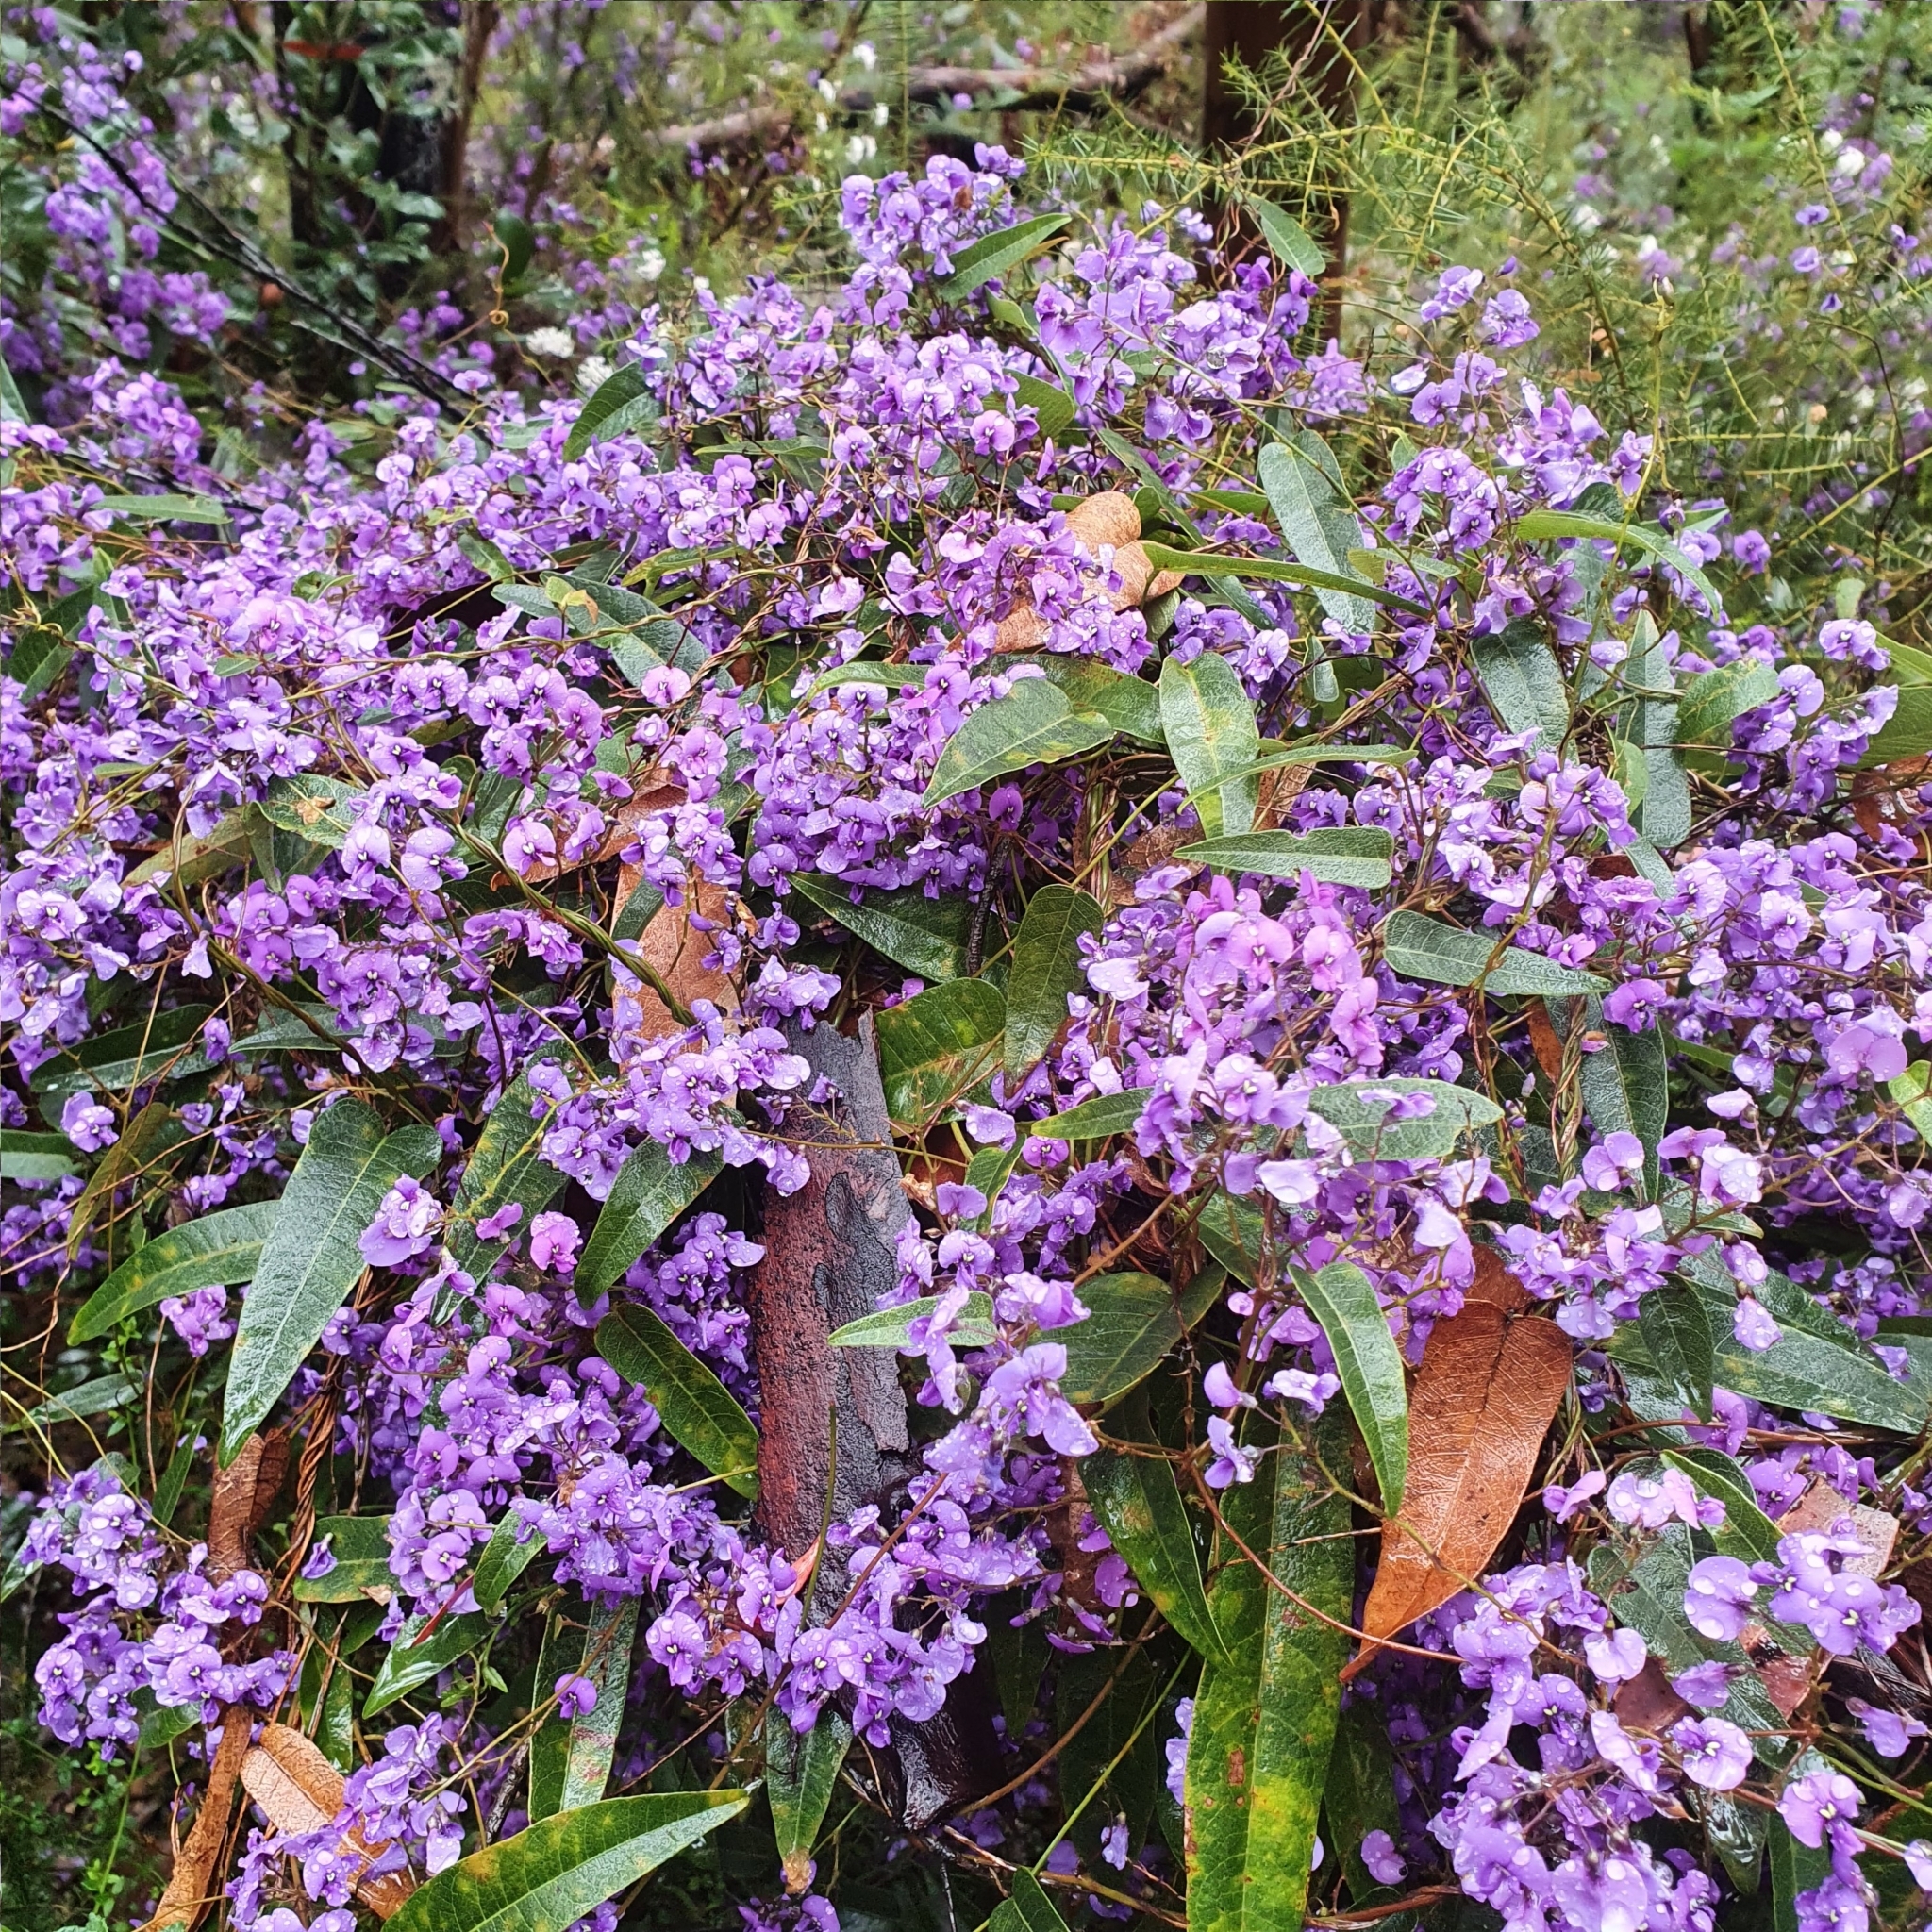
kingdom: Plantae
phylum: Tracheophyta
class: Magnoliopsida
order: Fabales
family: Fabaceae
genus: Hardenbergia
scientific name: Hardenbergia violacea
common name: Coral-pea
